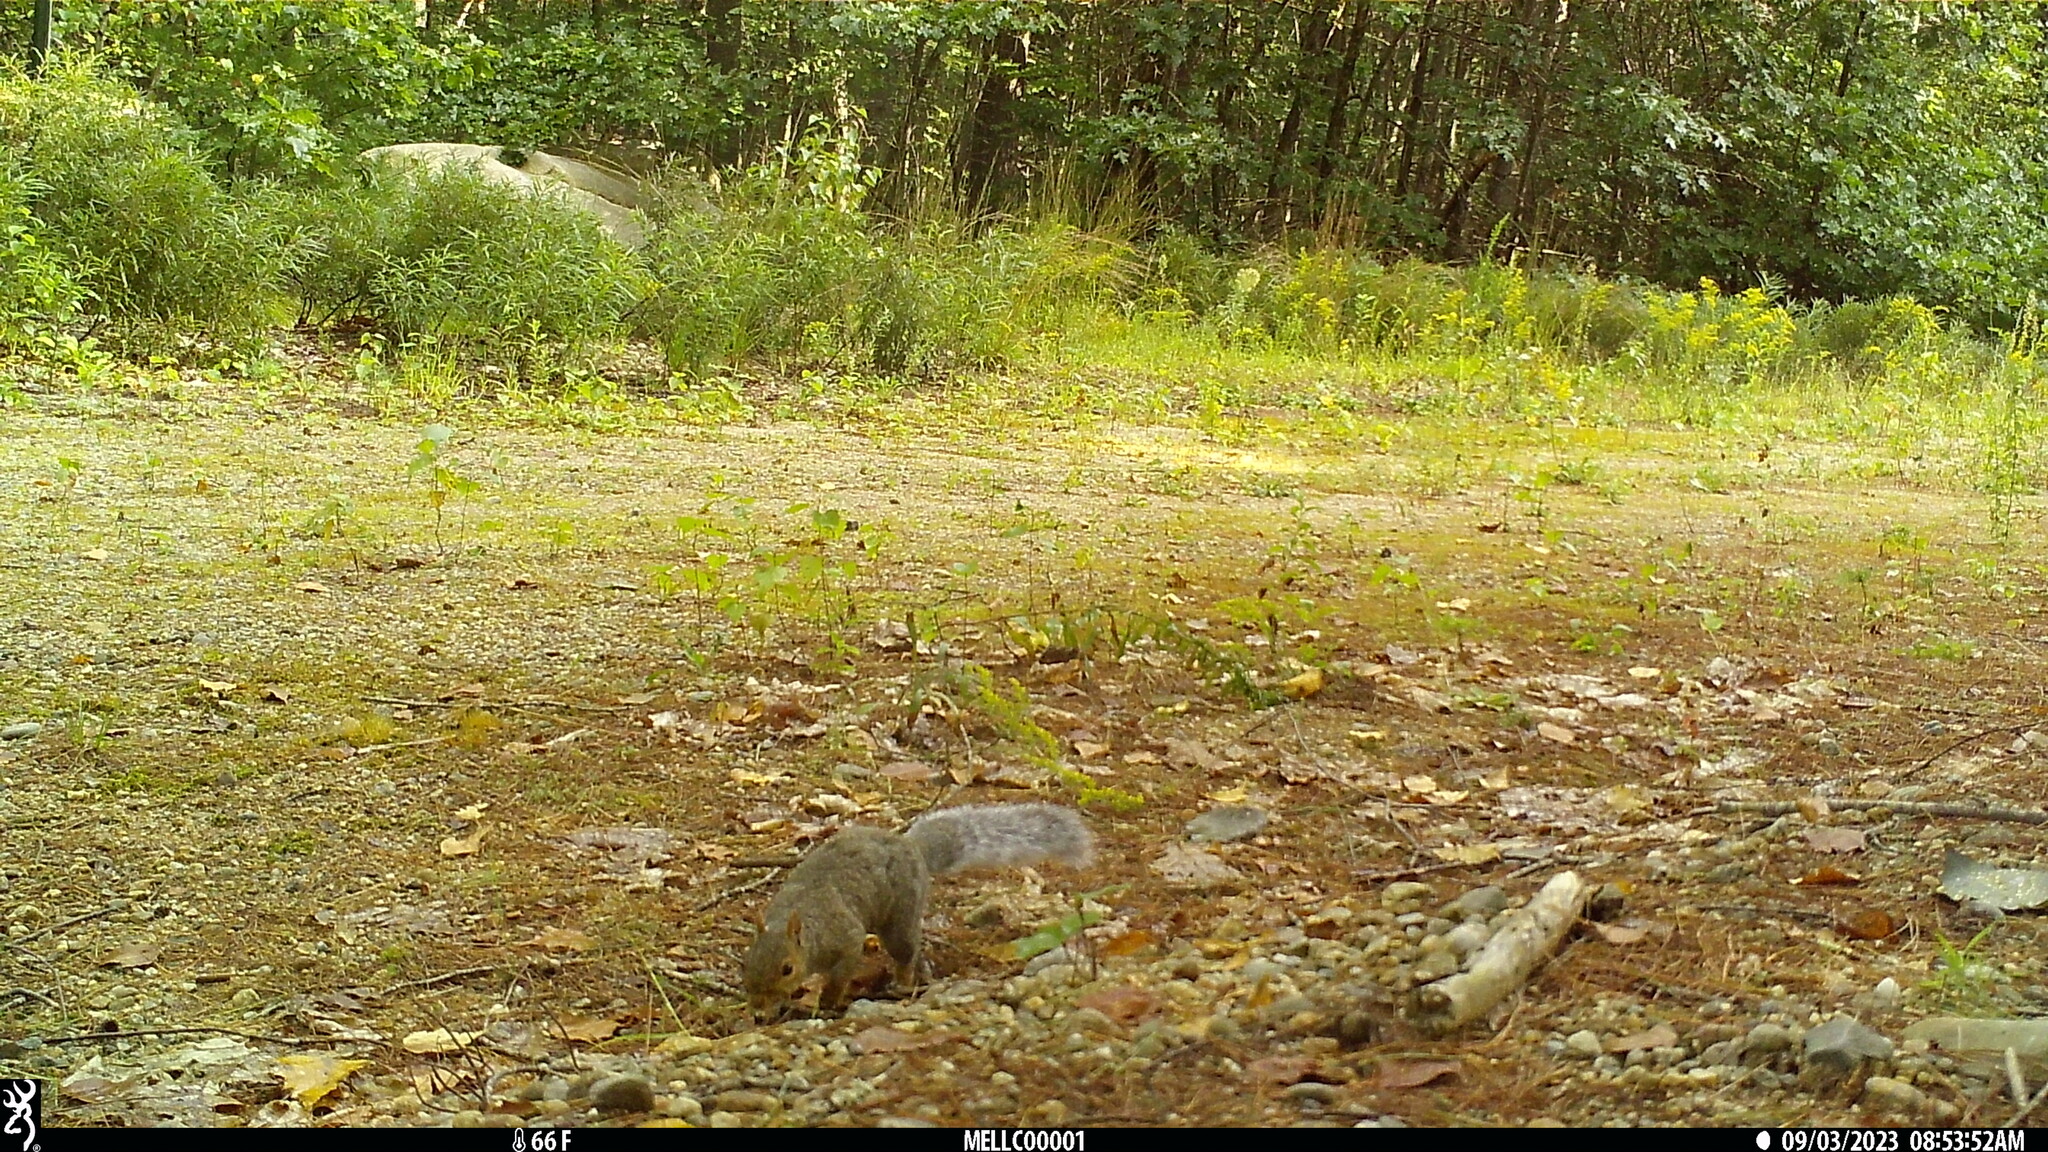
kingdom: Animalia
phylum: Chordata
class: Mammalia
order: Rodentia
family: Sciuridae
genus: Sciurus
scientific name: Sciurus carolinensis
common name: Eastern gray squirrel
